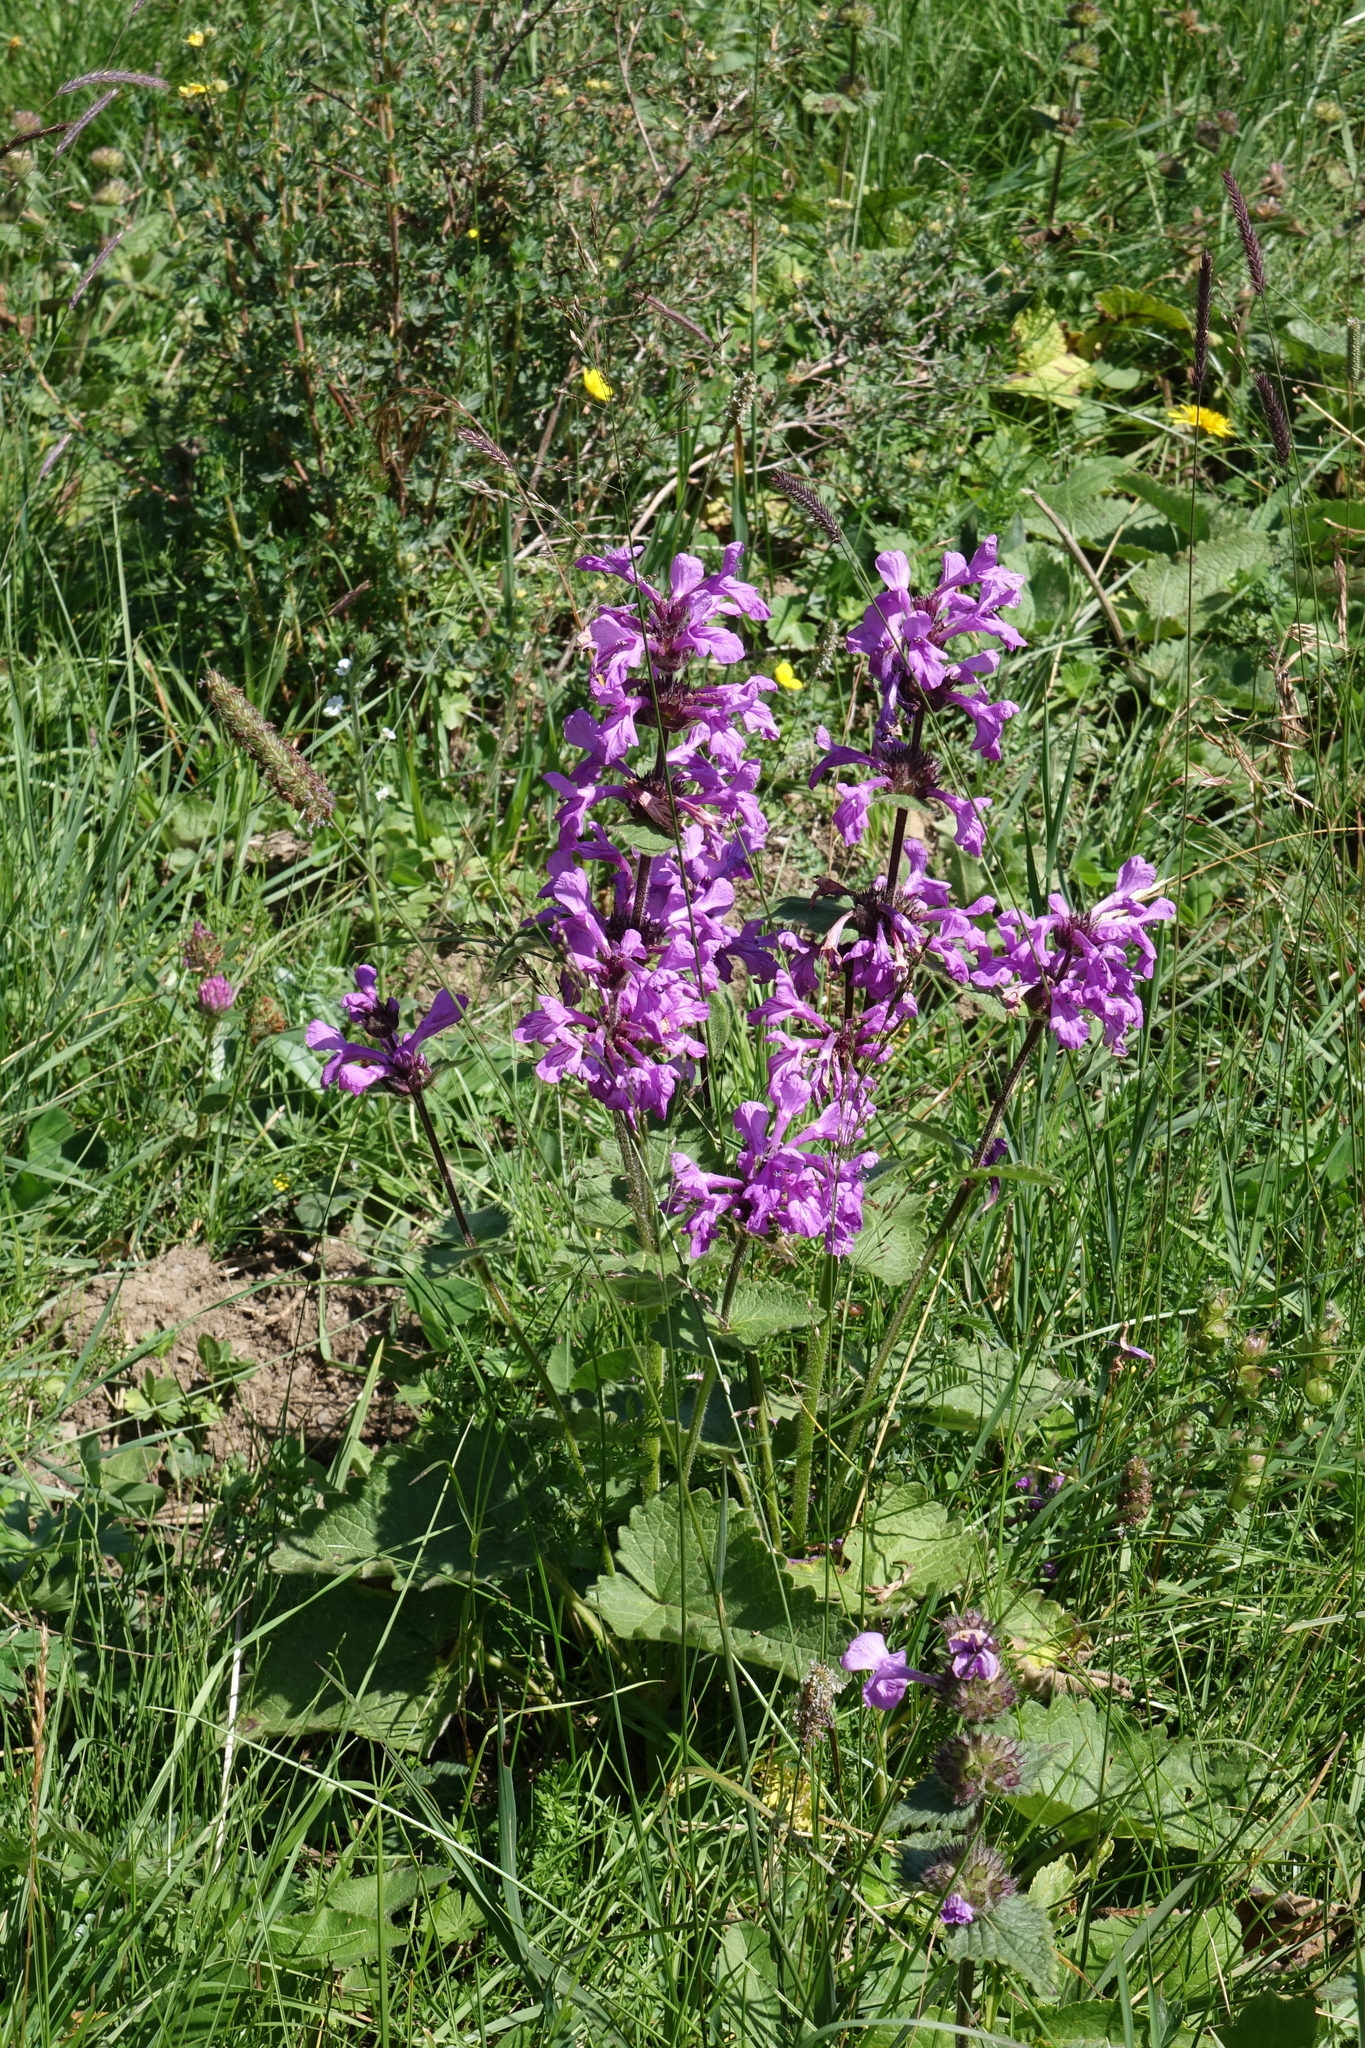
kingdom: Plantae
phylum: Tracheophyta
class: Magnoliopsida
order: Lamiales
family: Lamiaceae
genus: Betonica
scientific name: Betonica macrantha
